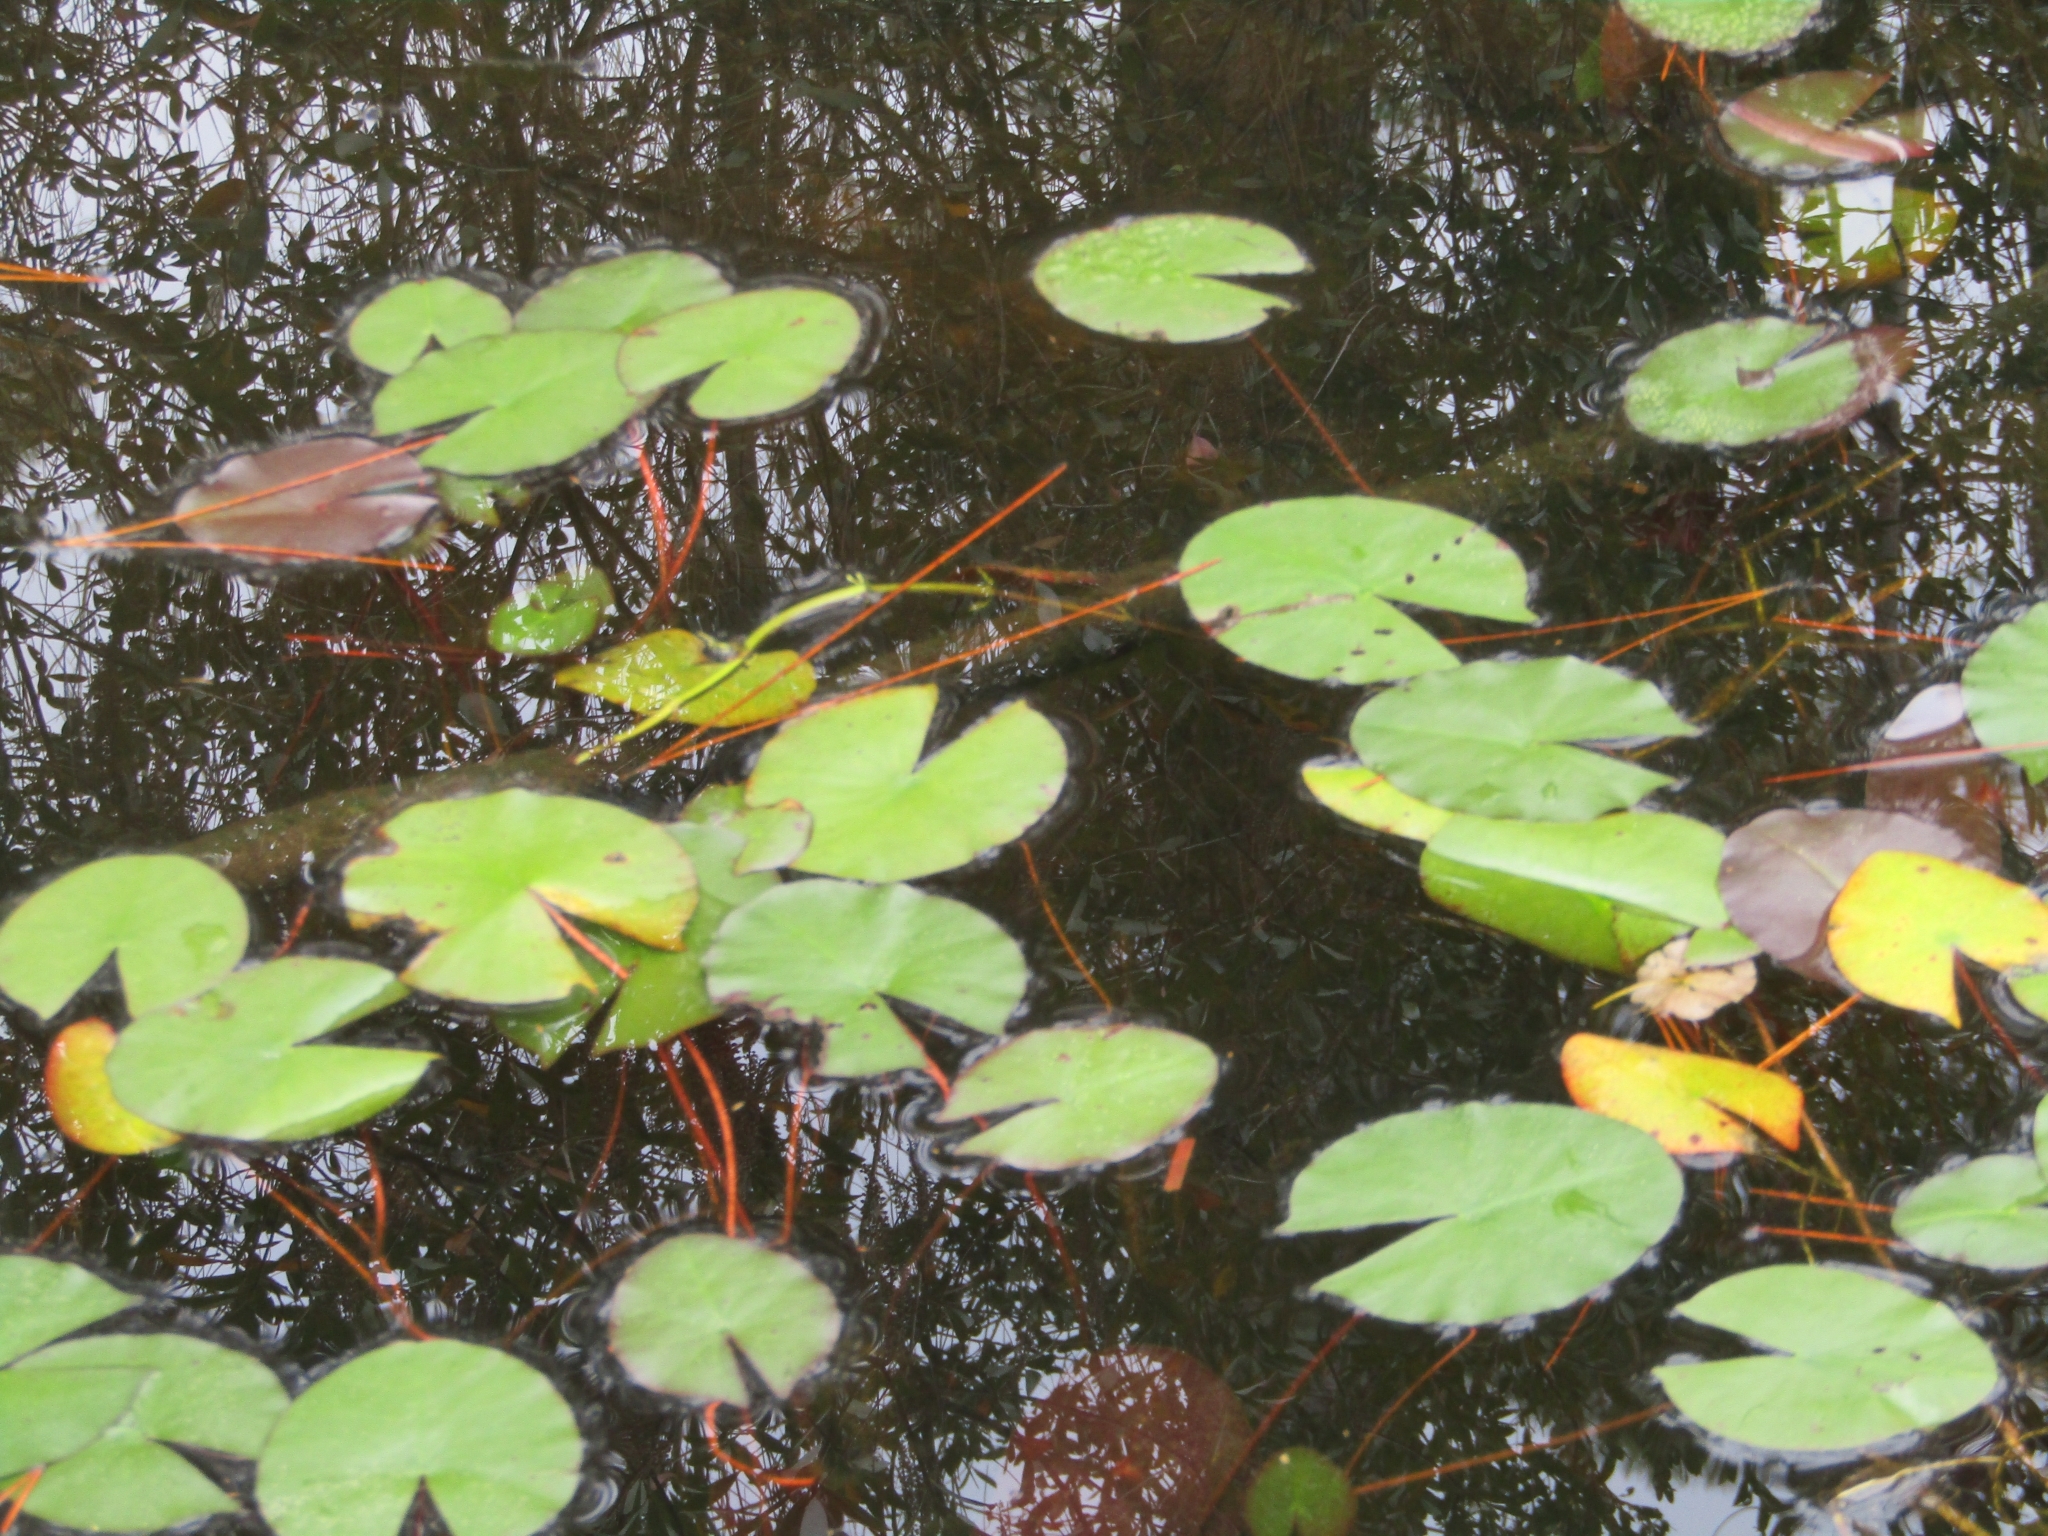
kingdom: Plantae
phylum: Tracheophyta
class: Magnoliopsida
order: Nymphaeales
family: Nymphaeaceae
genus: Nymphaea
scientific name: Nymphaea odorata
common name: Fragrant water-lily
